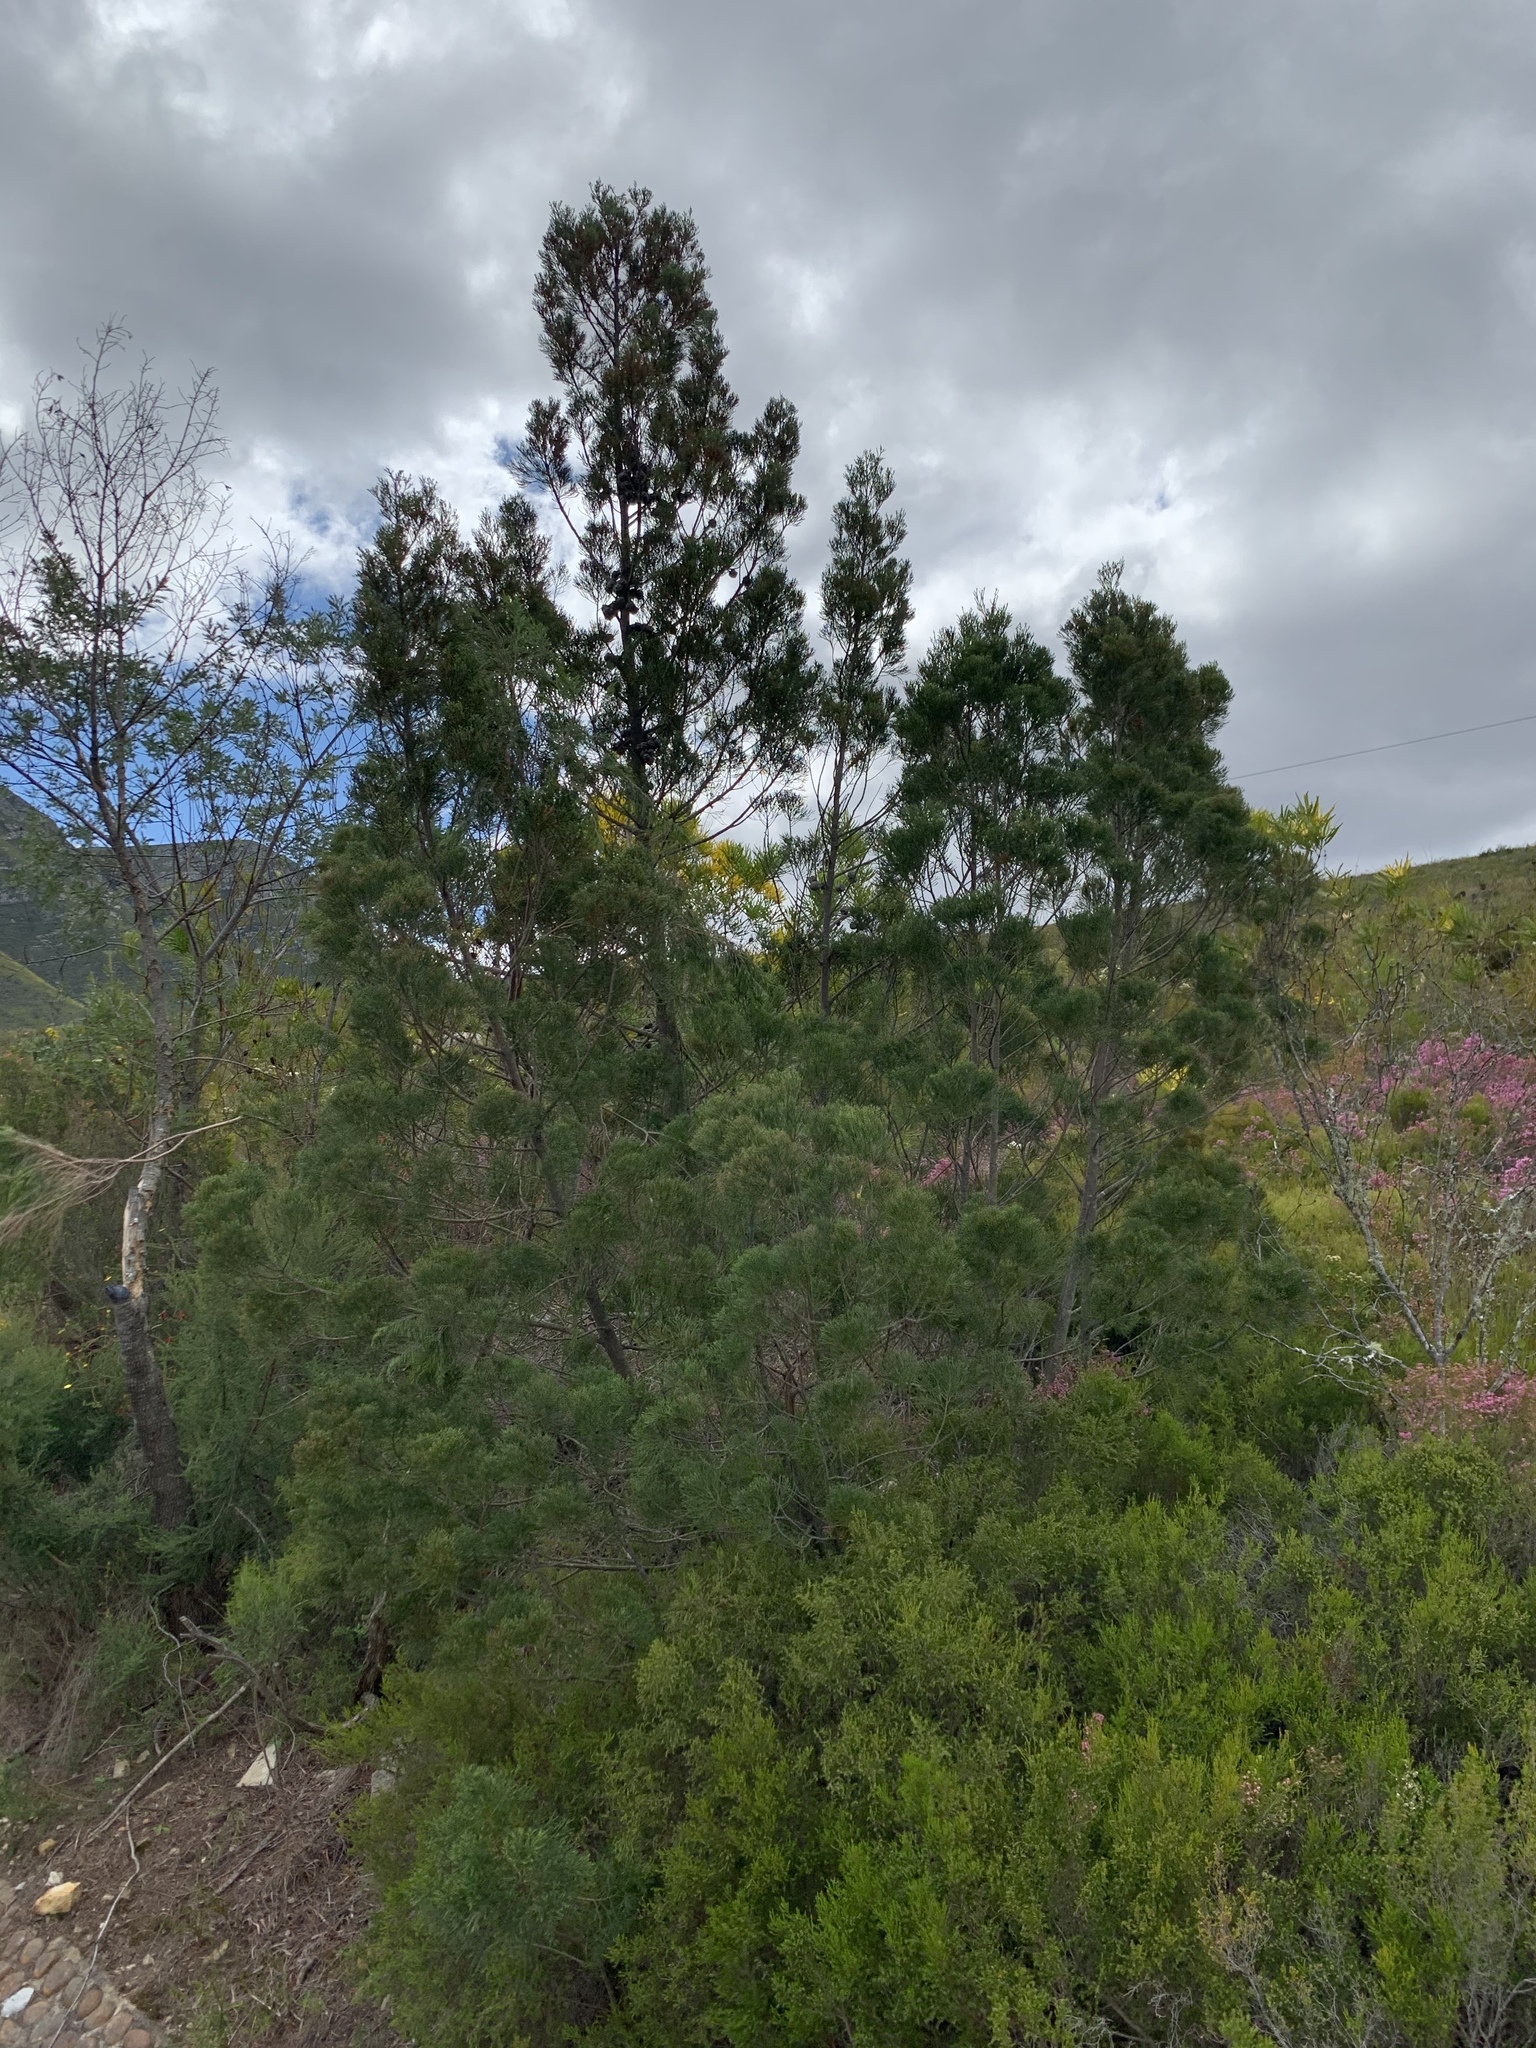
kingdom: Plantae
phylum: Tracheophyta
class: Pinopsida
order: Pinales
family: Cupressaceae
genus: Widdringtonia
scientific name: Widdringtonia nodiflora
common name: Cape cypress
